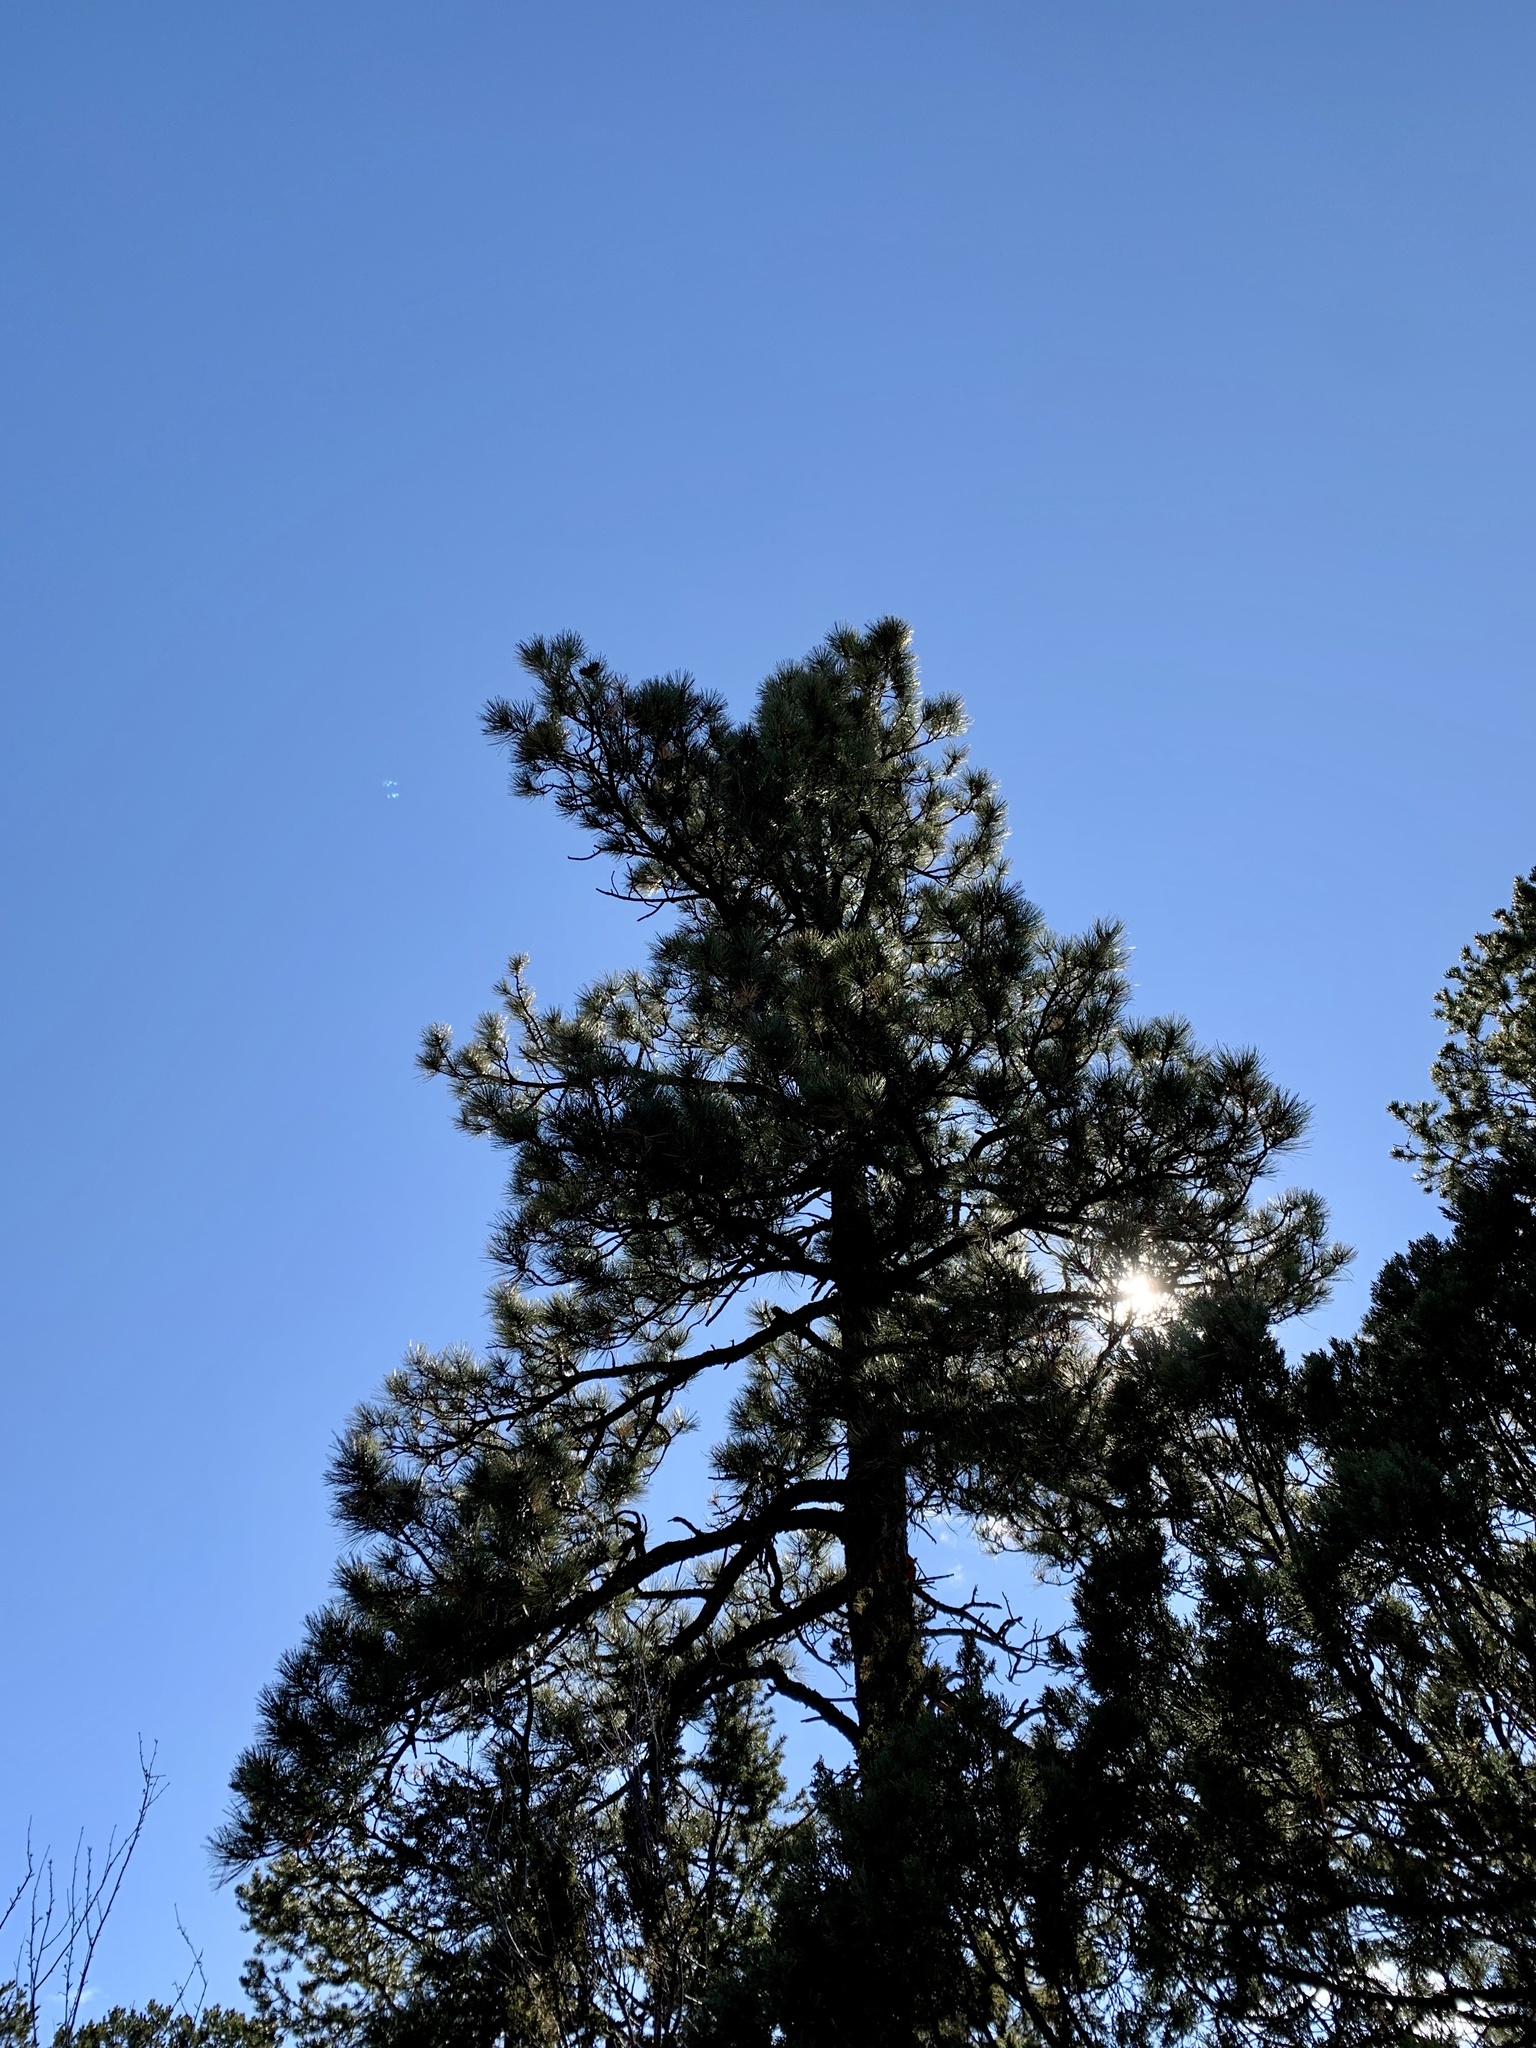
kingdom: Plantae
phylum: Tracheophyta
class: Pinopsida
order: Pinales
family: Pinaceae
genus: Pinus
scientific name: Pinus ponderosa
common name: Western yellow-pine
